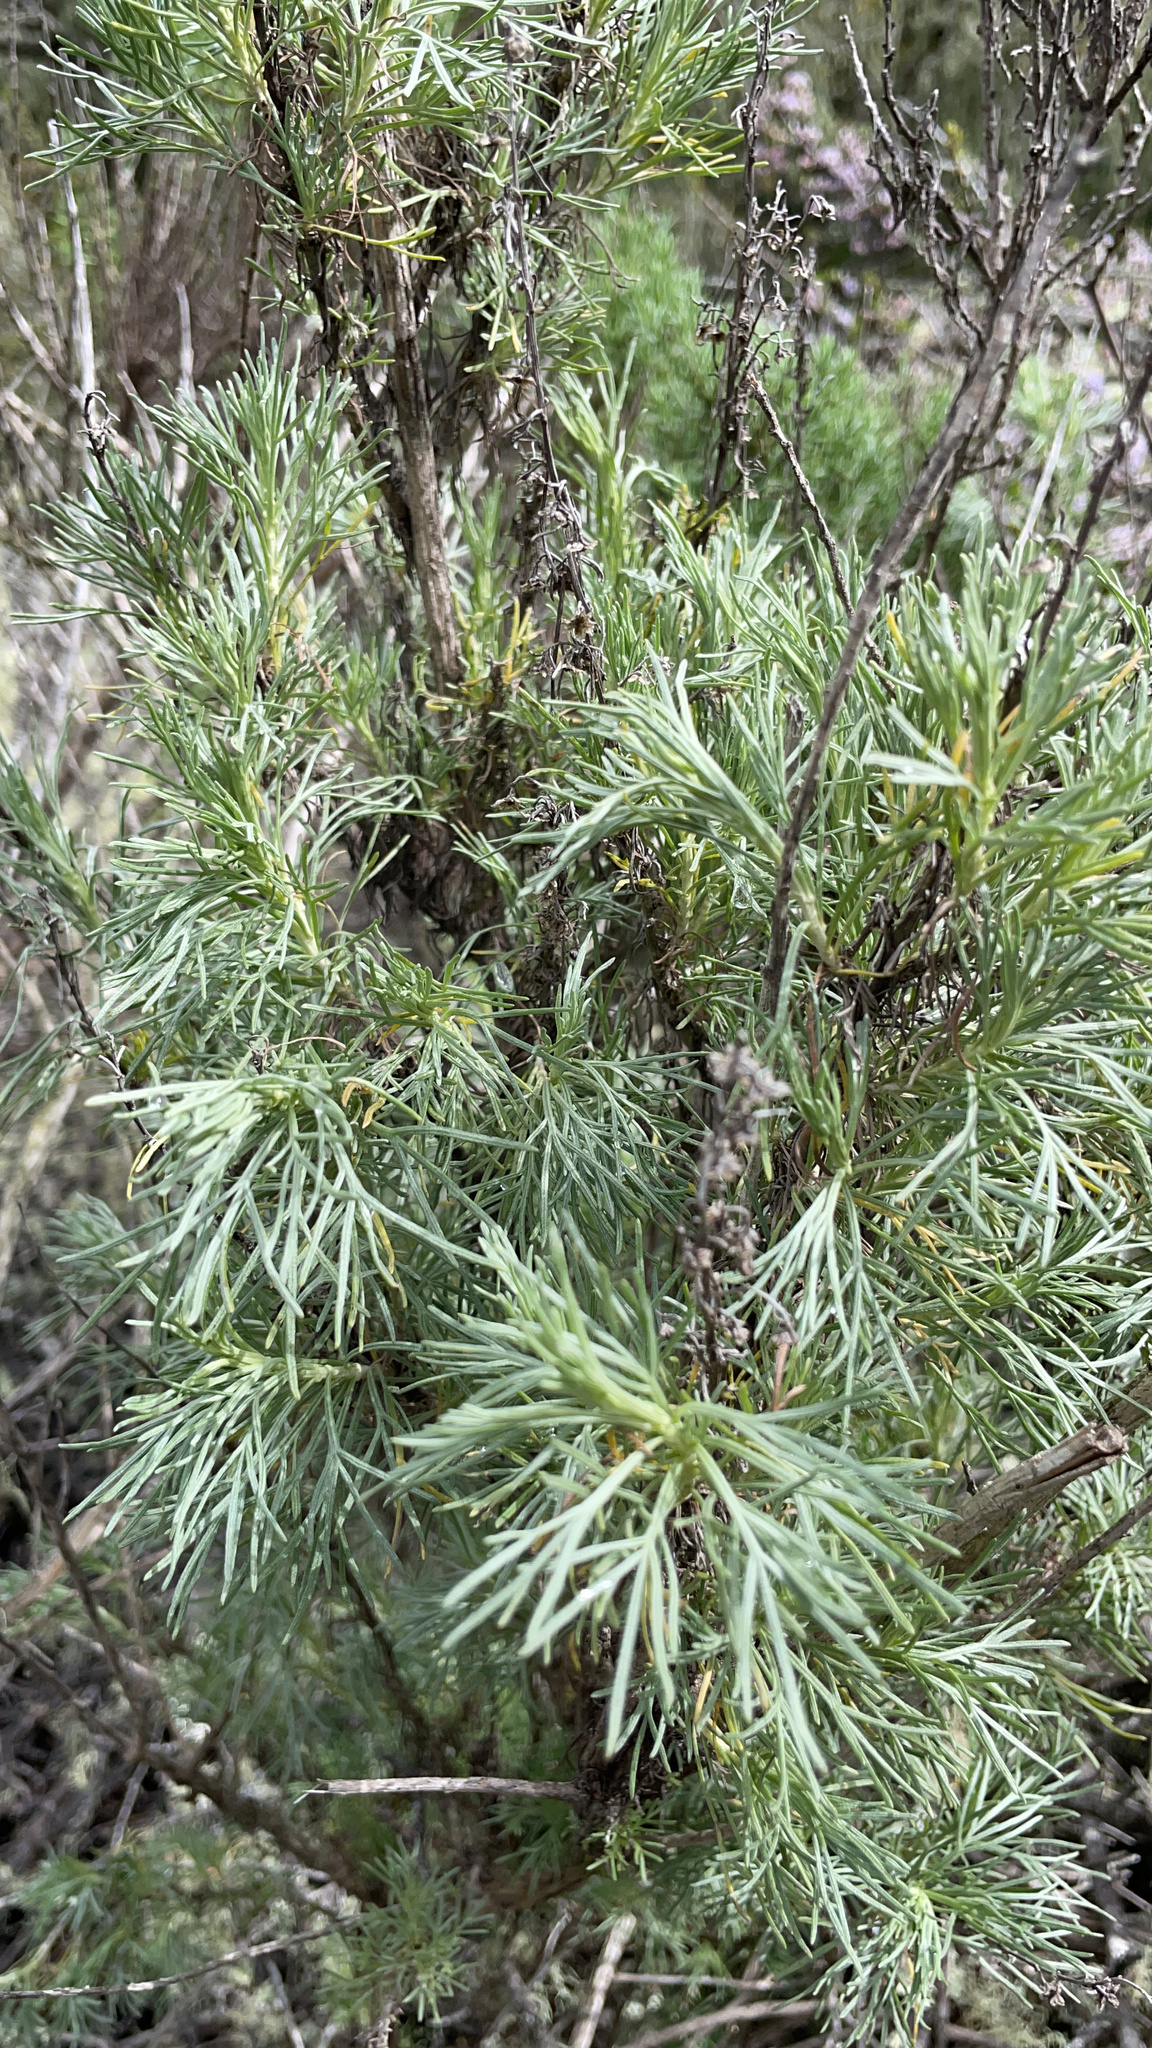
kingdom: Plantae
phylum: Tracheophyta
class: Magnoliopsida
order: Asterales
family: Asteraceae
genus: Artemisia
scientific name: Artemisia californica
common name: California sagebrush
